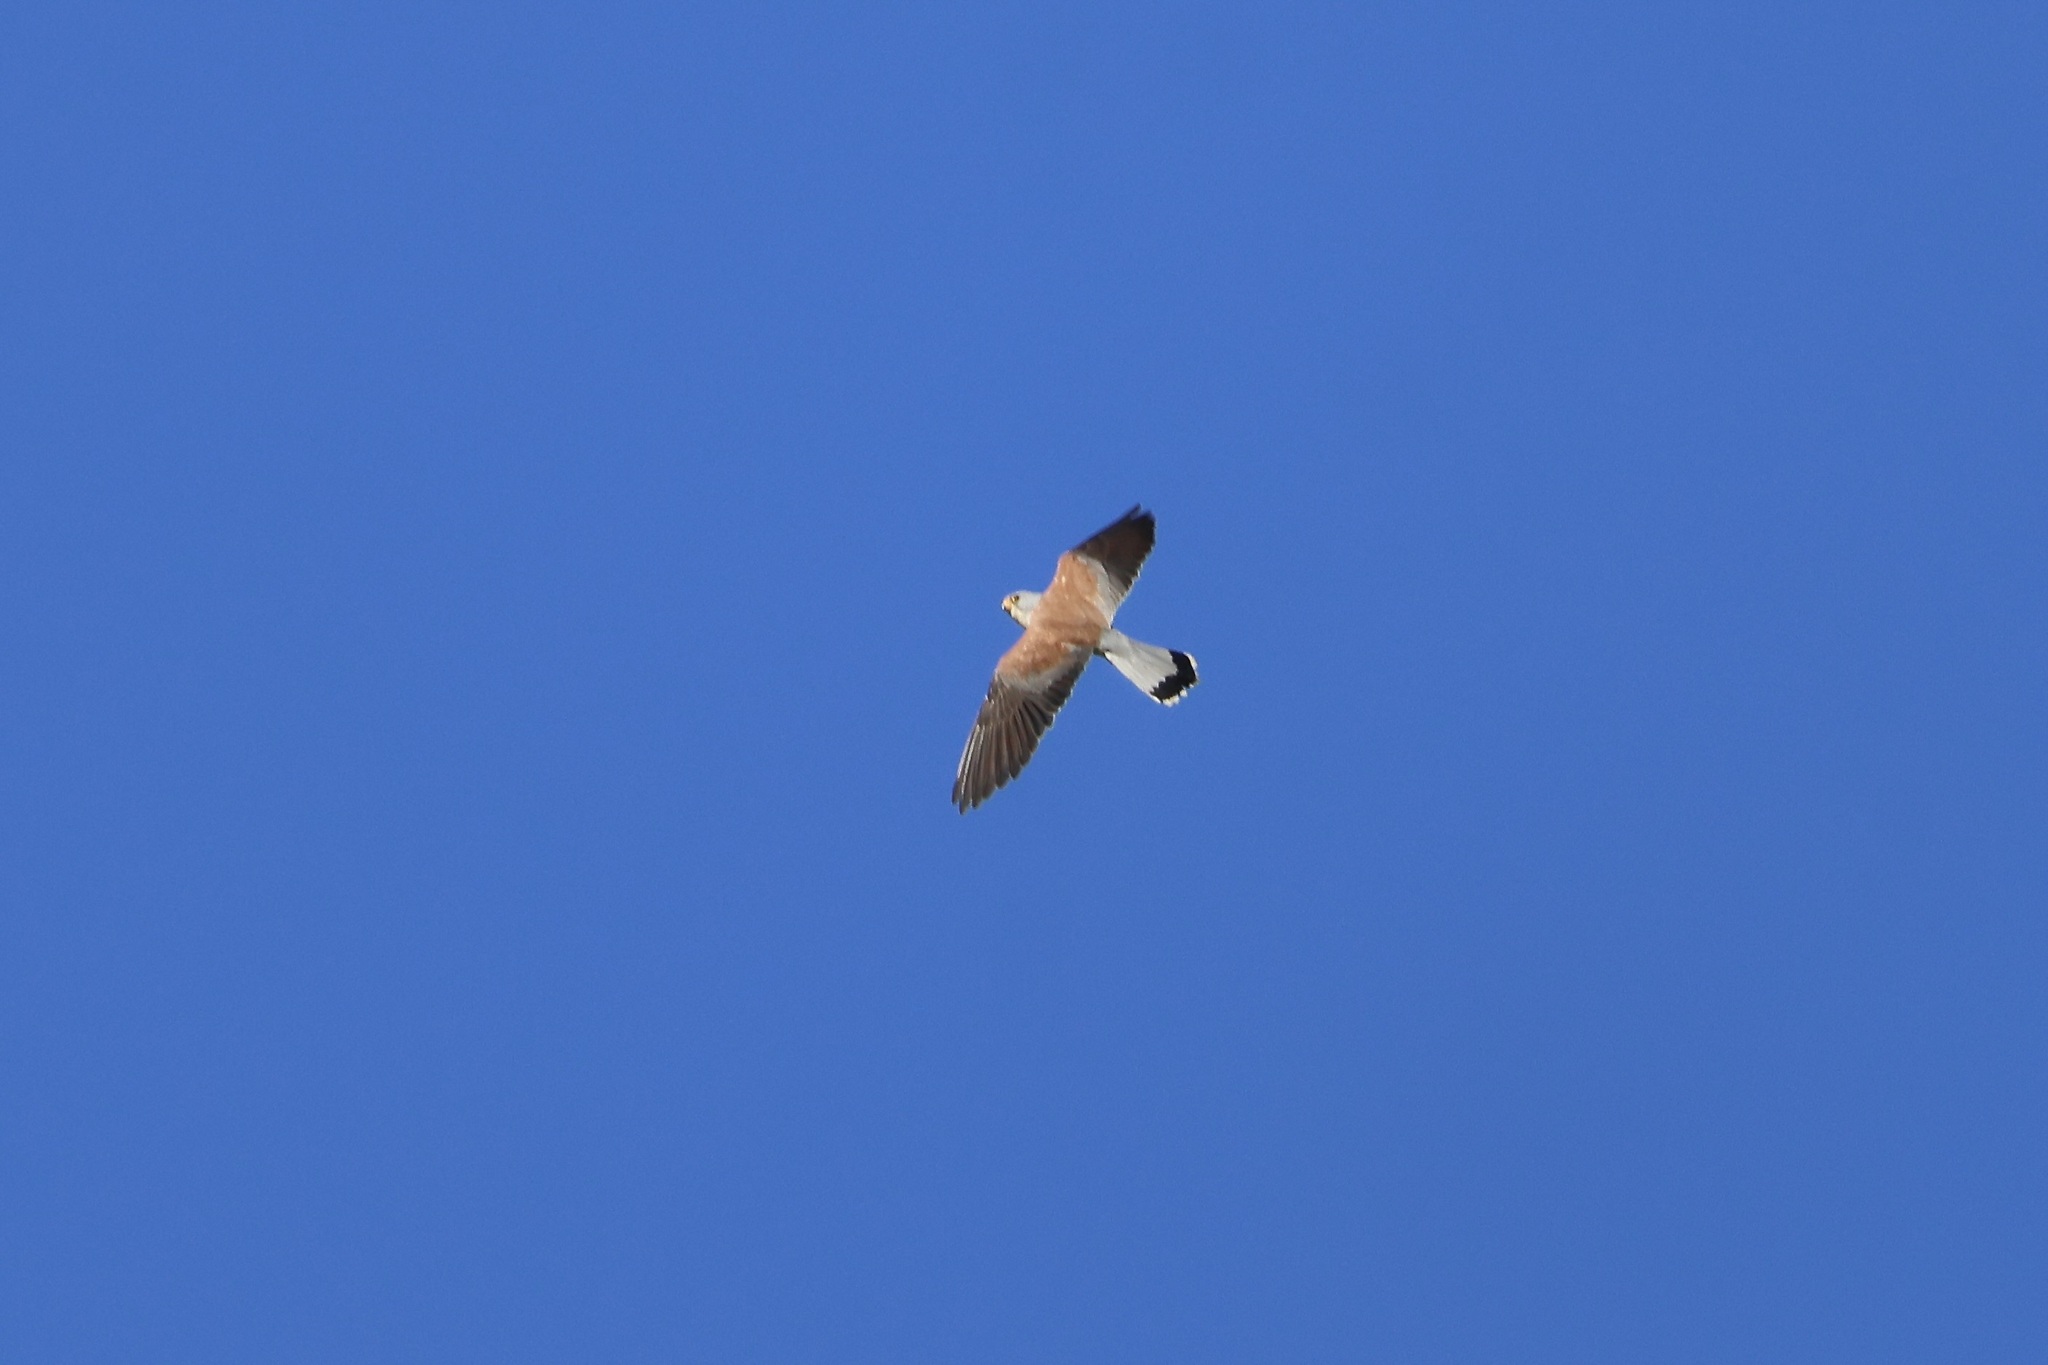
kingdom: Animalia
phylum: Chordata
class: Aves
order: Falconiformes
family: Falconidae
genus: Falco
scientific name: Falco naumanni
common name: Lesser kestrel
